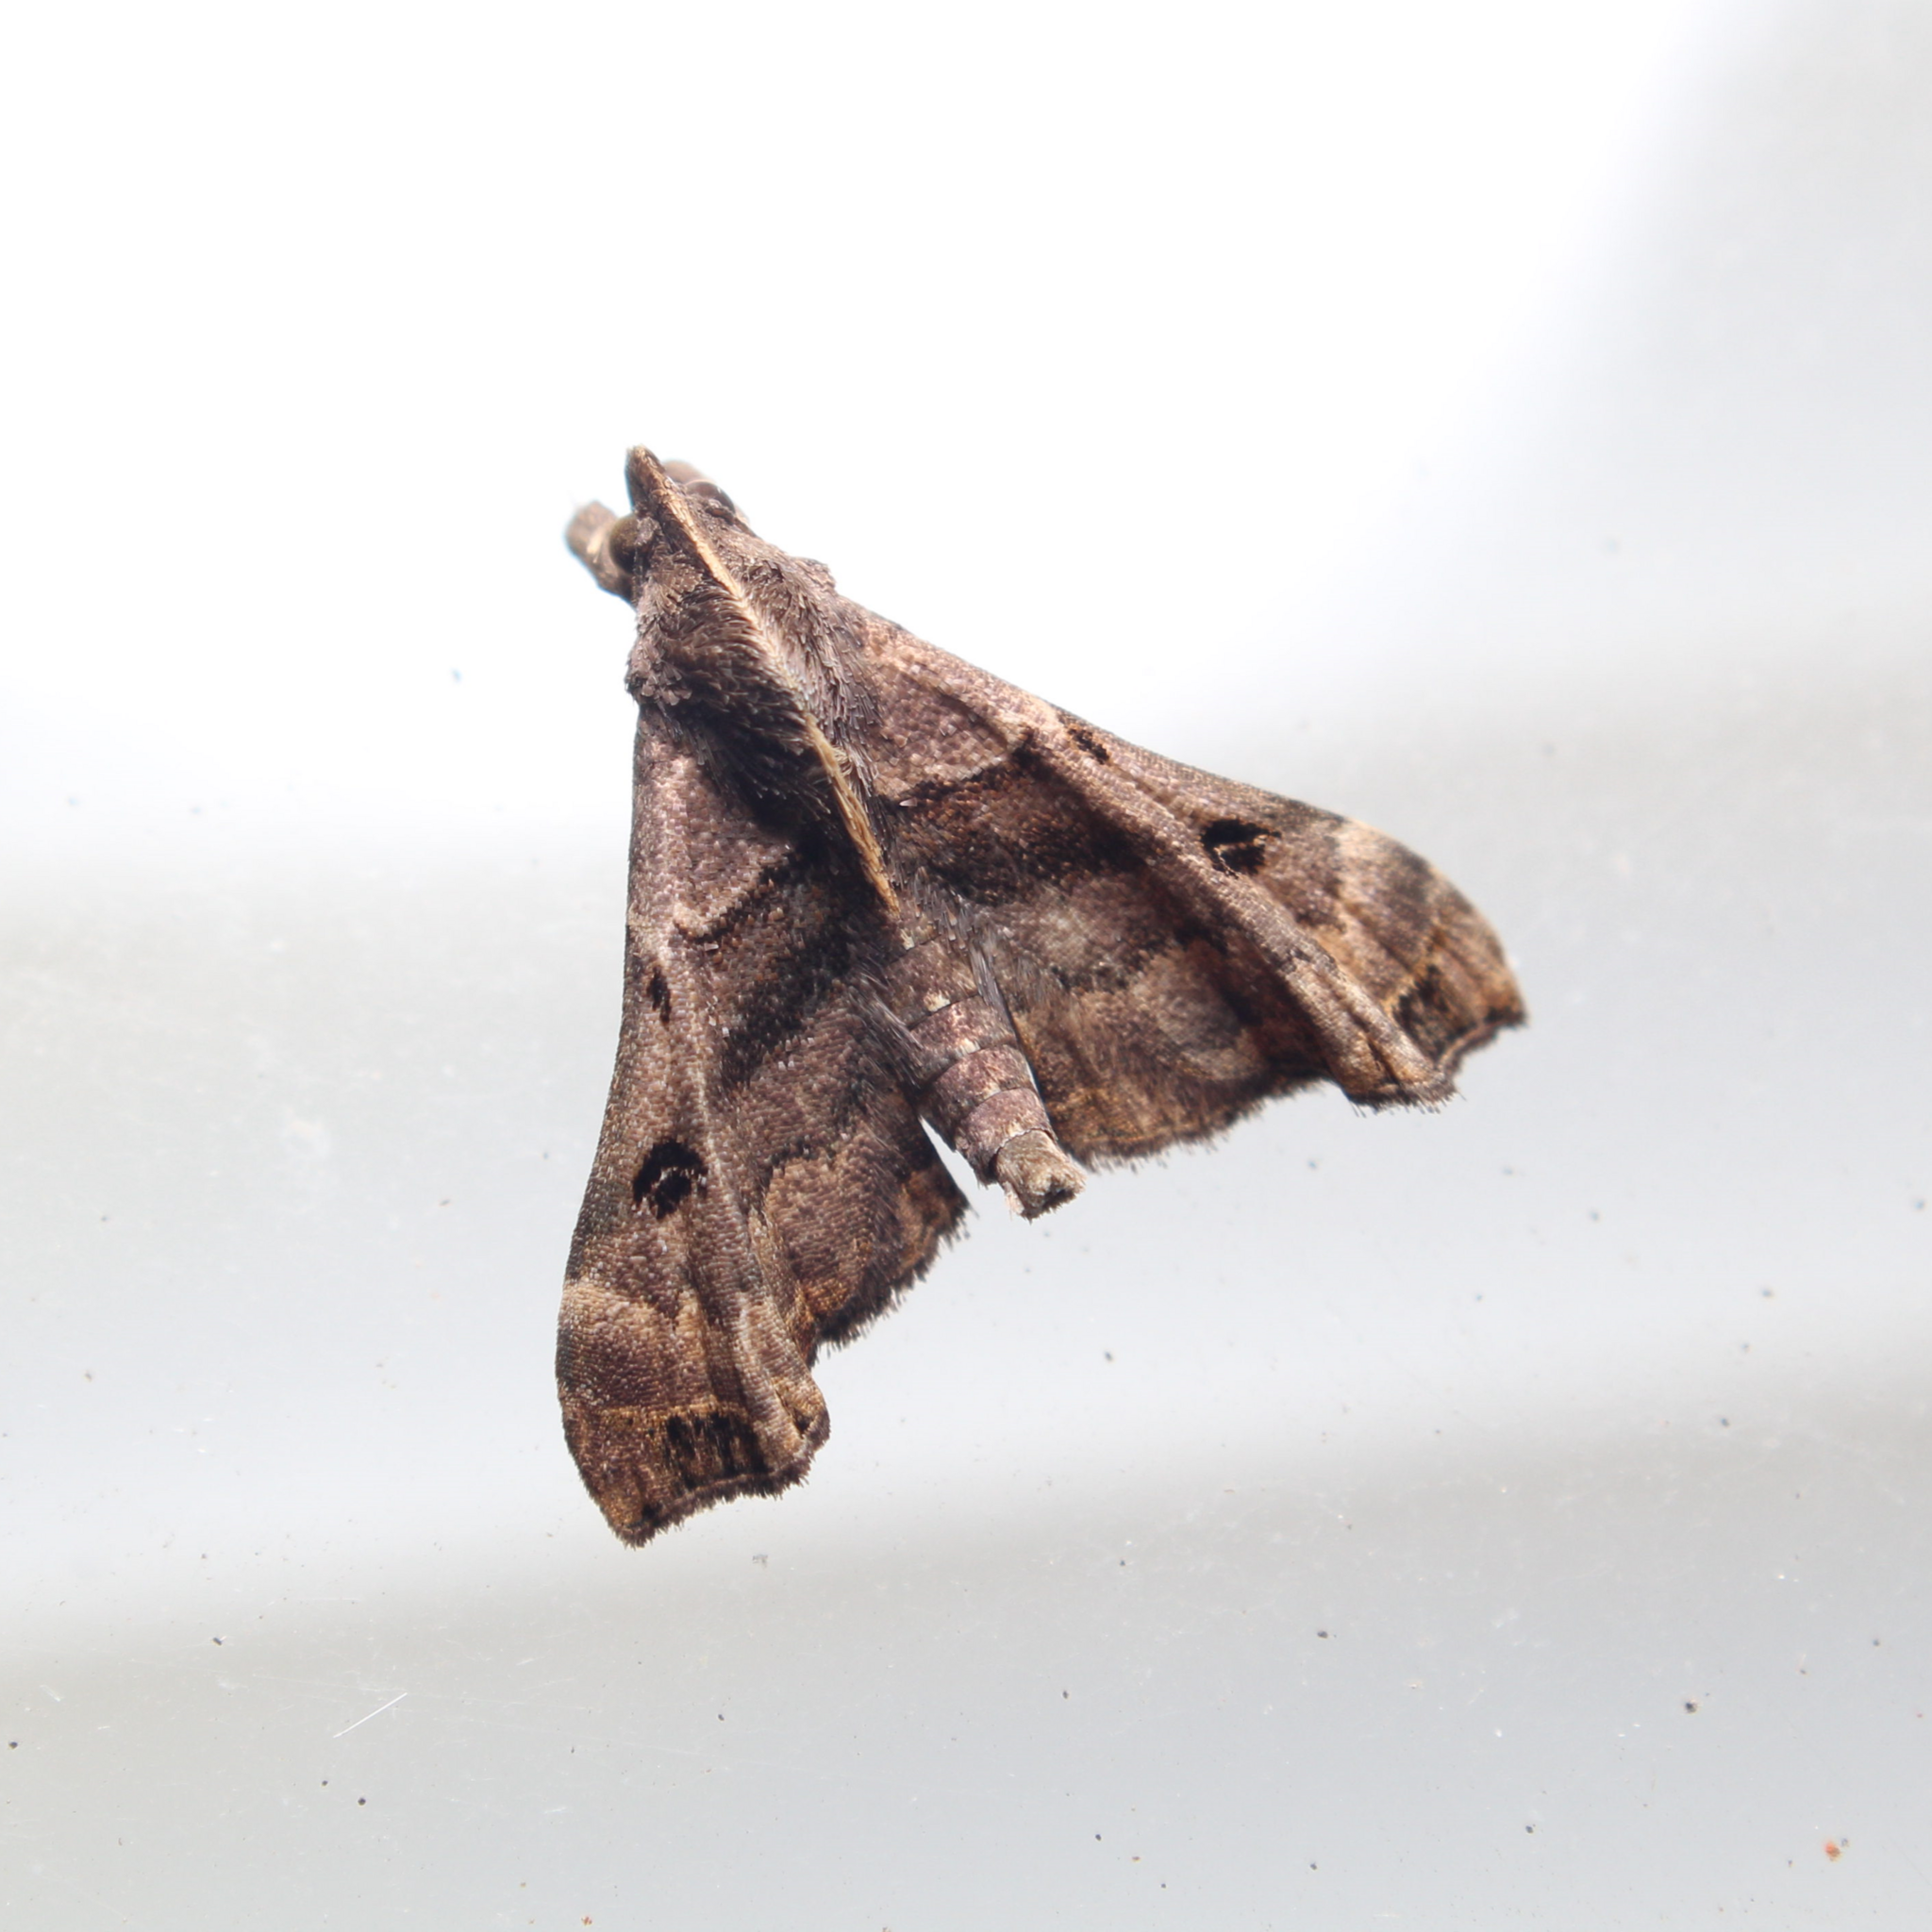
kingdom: Animalia
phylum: Arthropoda
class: Insecta
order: Lepidoptera
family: Erebidae
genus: Palthis
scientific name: Palthis asopialis
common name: Faint-spotted palthis moth
